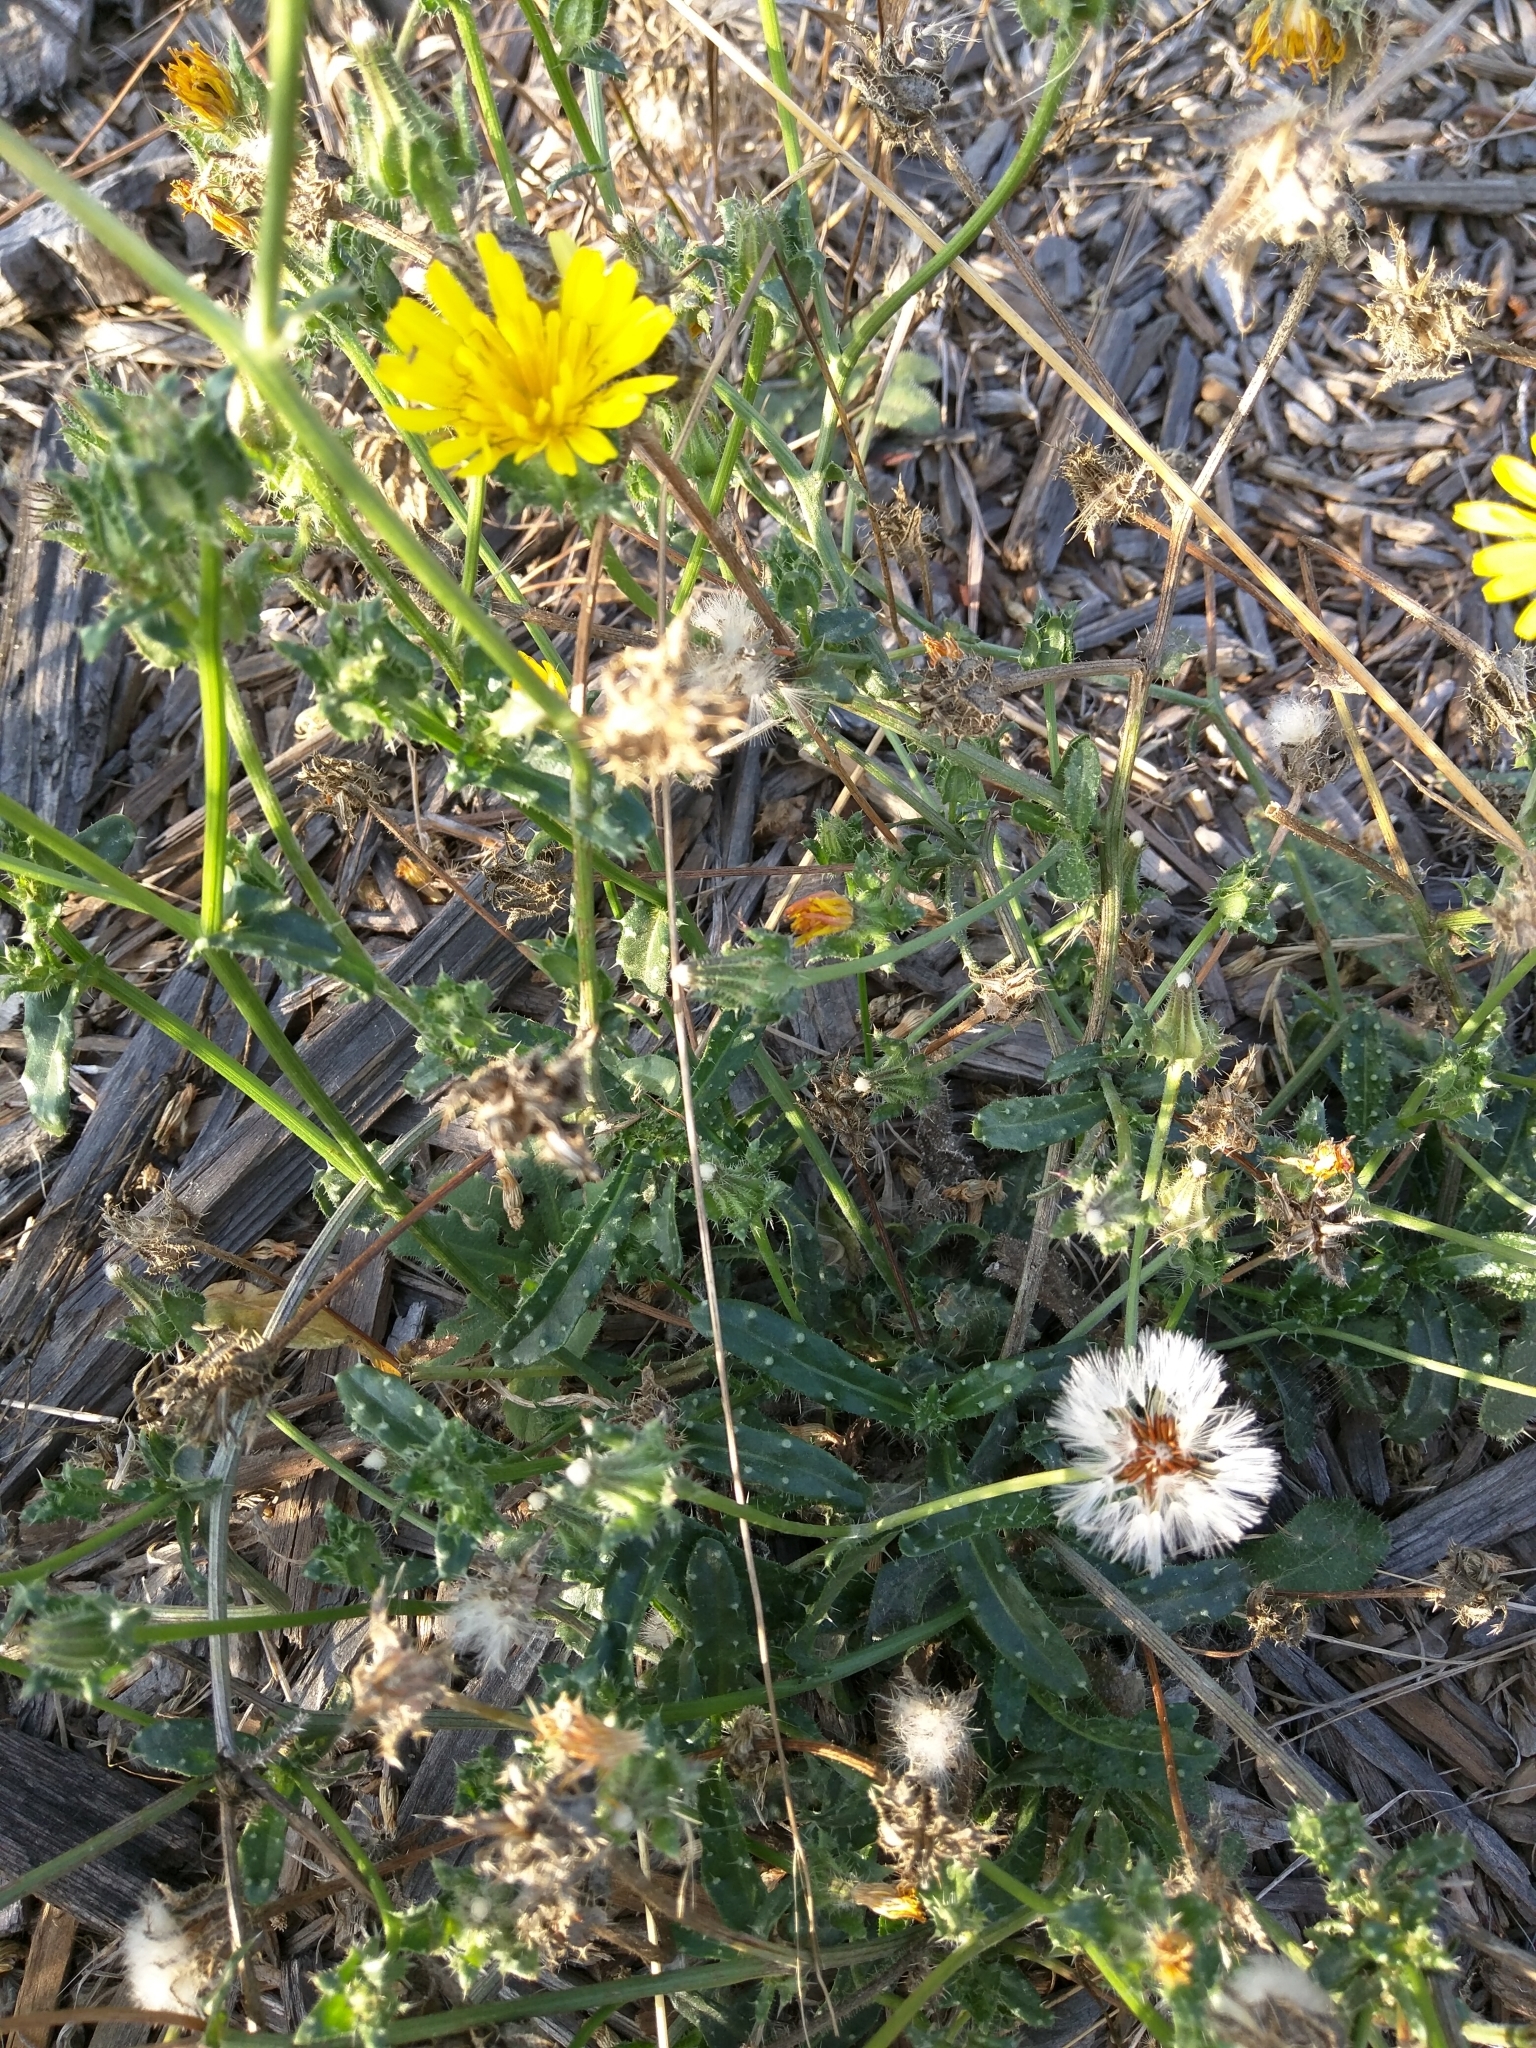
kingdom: Plantae
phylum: Tracheophyta
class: Magnoliopsida
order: Asterales
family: Asteraceae
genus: Helminthotheca
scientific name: Helminthotheca echioides
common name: Ox-tongue
